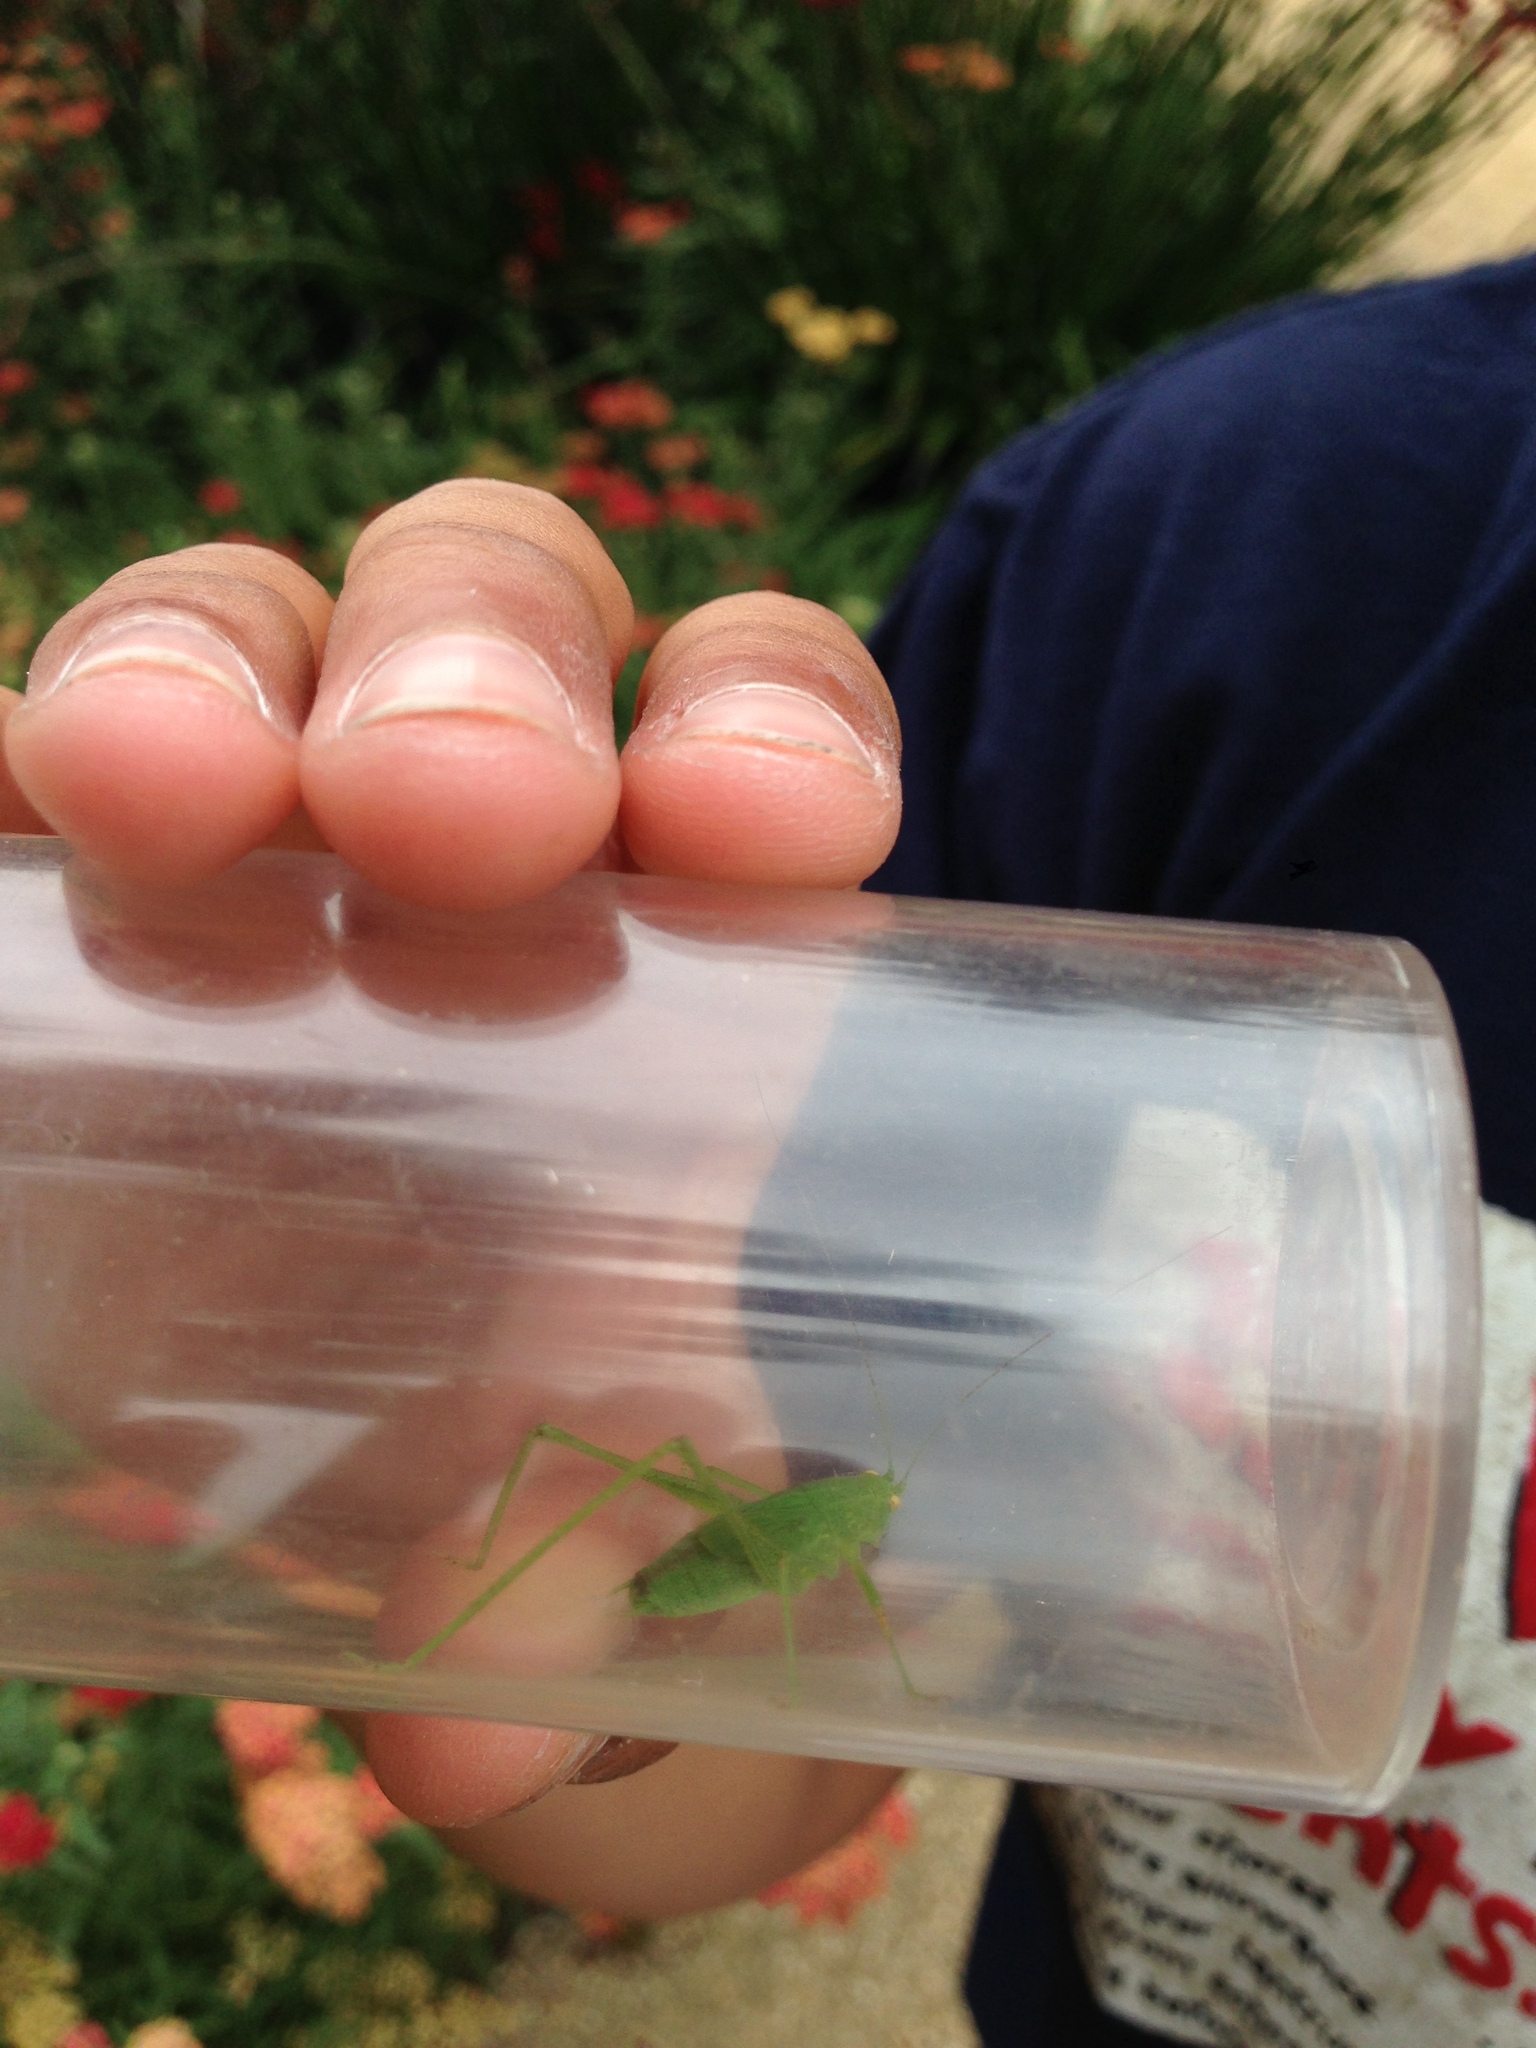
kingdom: Animalia
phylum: Arthropoda
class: Insecta
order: Orthoptera
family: Tettigoniidae
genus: Phaneroptera
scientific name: Phaneroptera nana
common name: Southern sickle bush-cricket
